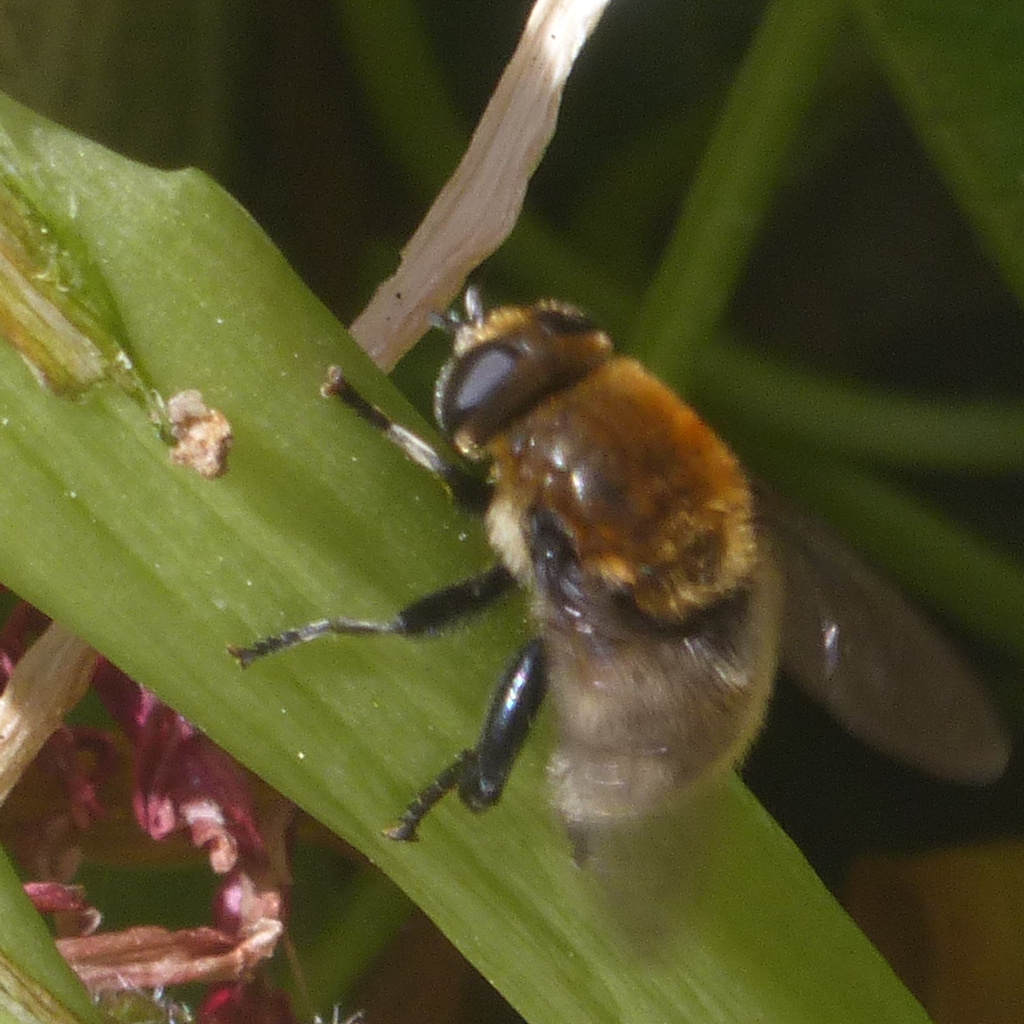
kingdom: Animalia
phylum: Arthropoda
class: Insecta
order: Diptera
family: Syrphidae
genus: Merodon
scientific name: Merodon equestris
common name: Greater bulb-fly
